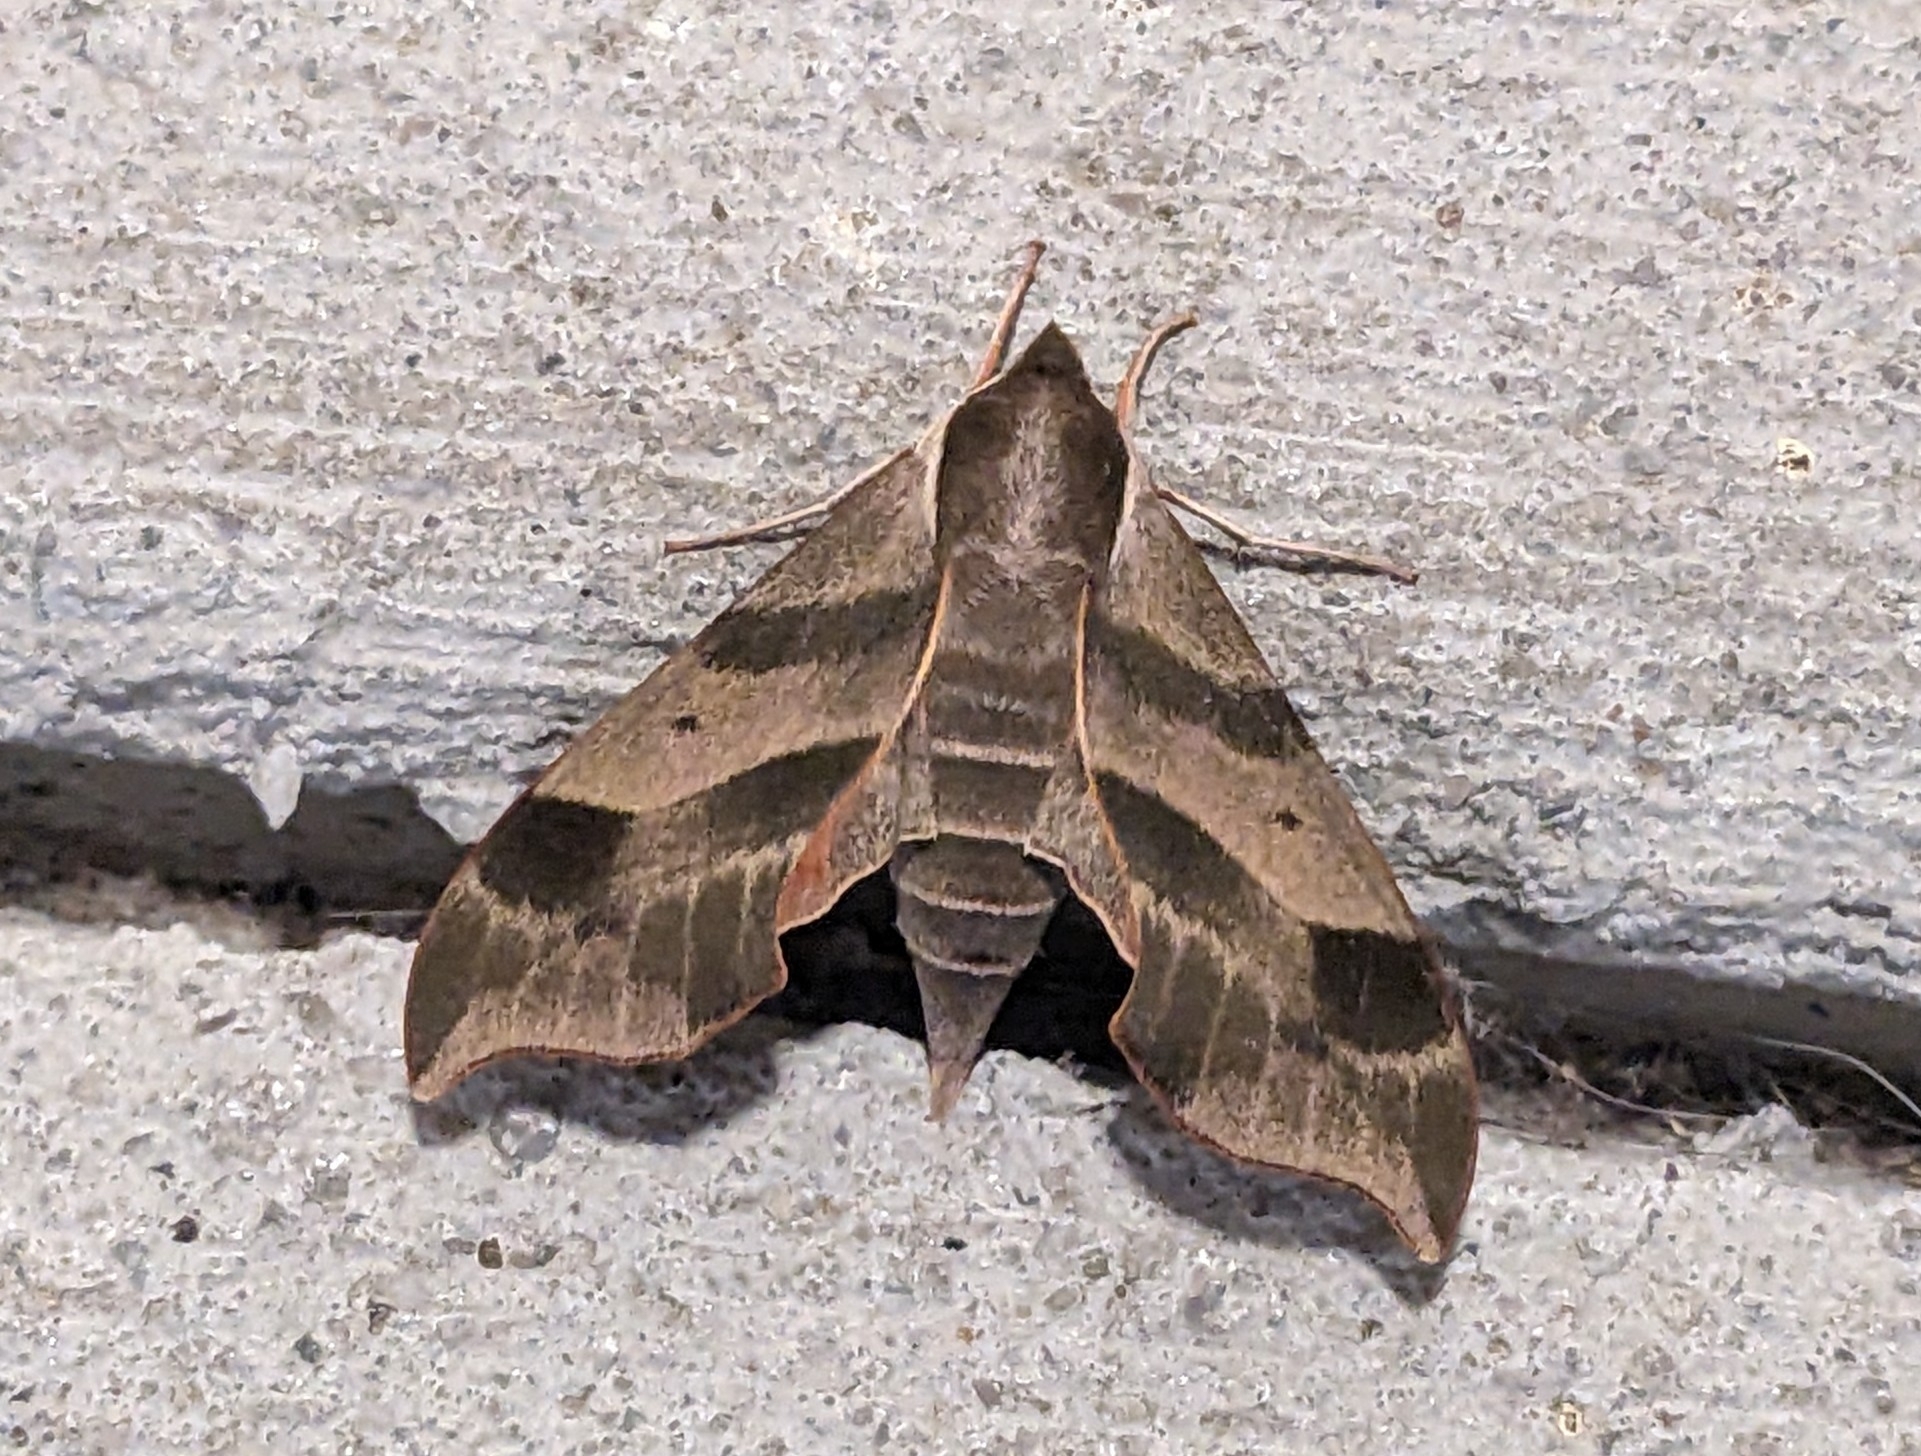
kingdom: Animalia
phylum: Arthropoda
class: Insecta
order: Lepidoptera
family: Sphingidae
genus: Darapsa
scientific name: Darapsa myron
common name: Hog sphinx
